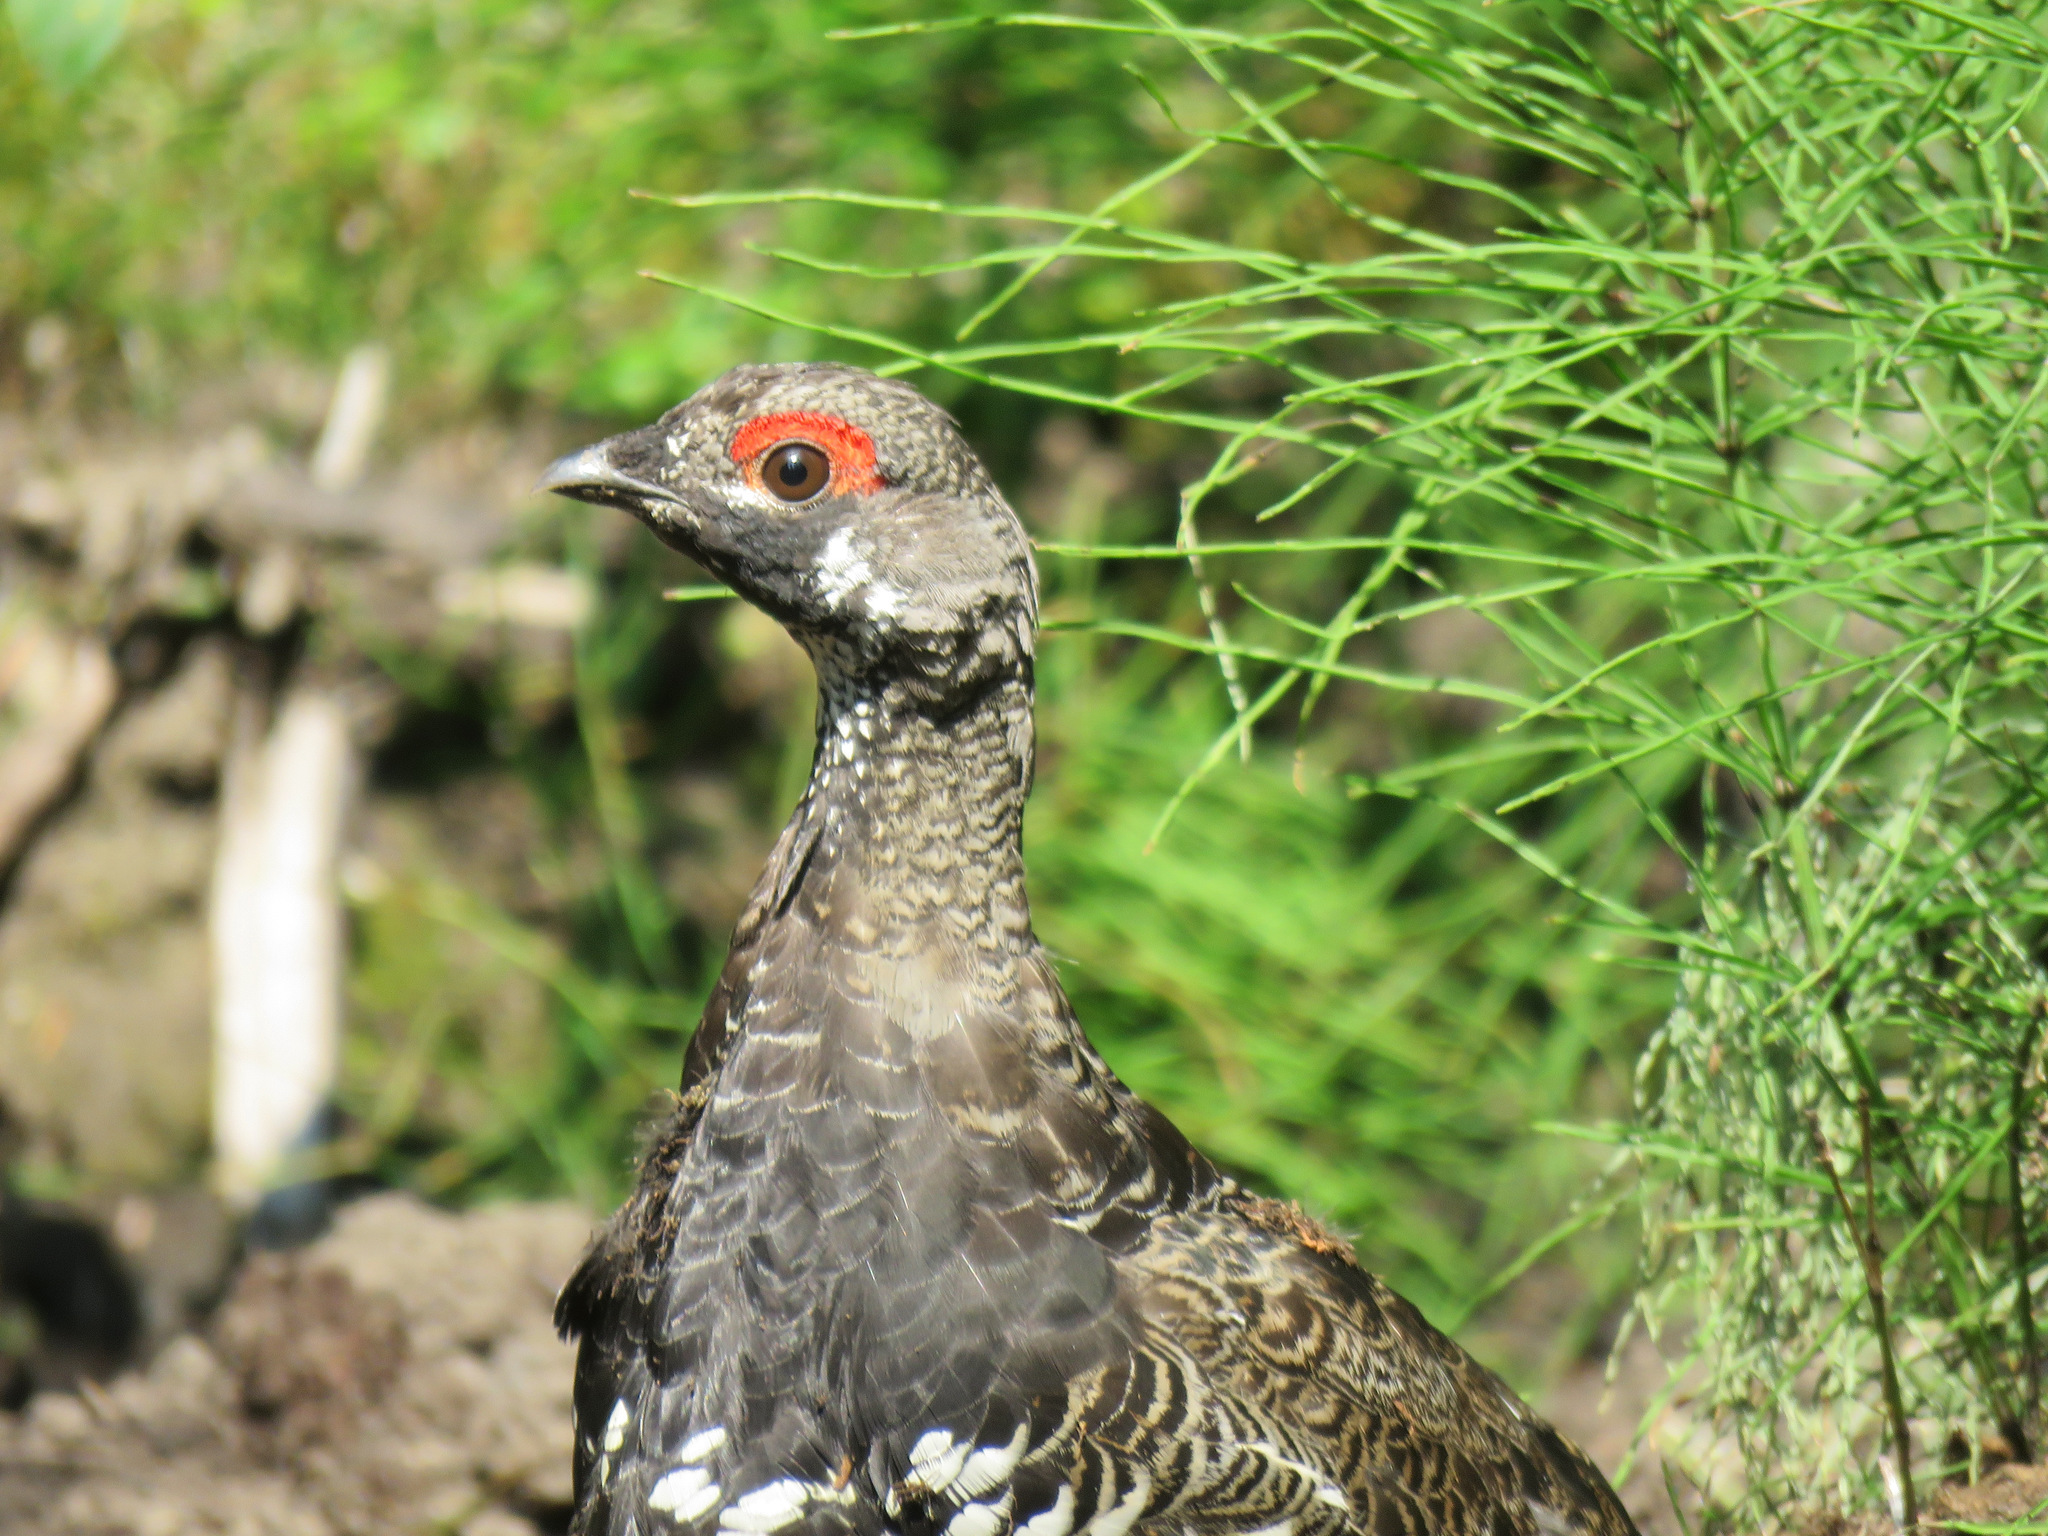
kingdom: Animalia
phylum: Chordata
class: Aves
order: Galliformes
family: Phasianidae
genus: Canachites
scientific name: Canachites canadensis
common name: Spruce grouse
